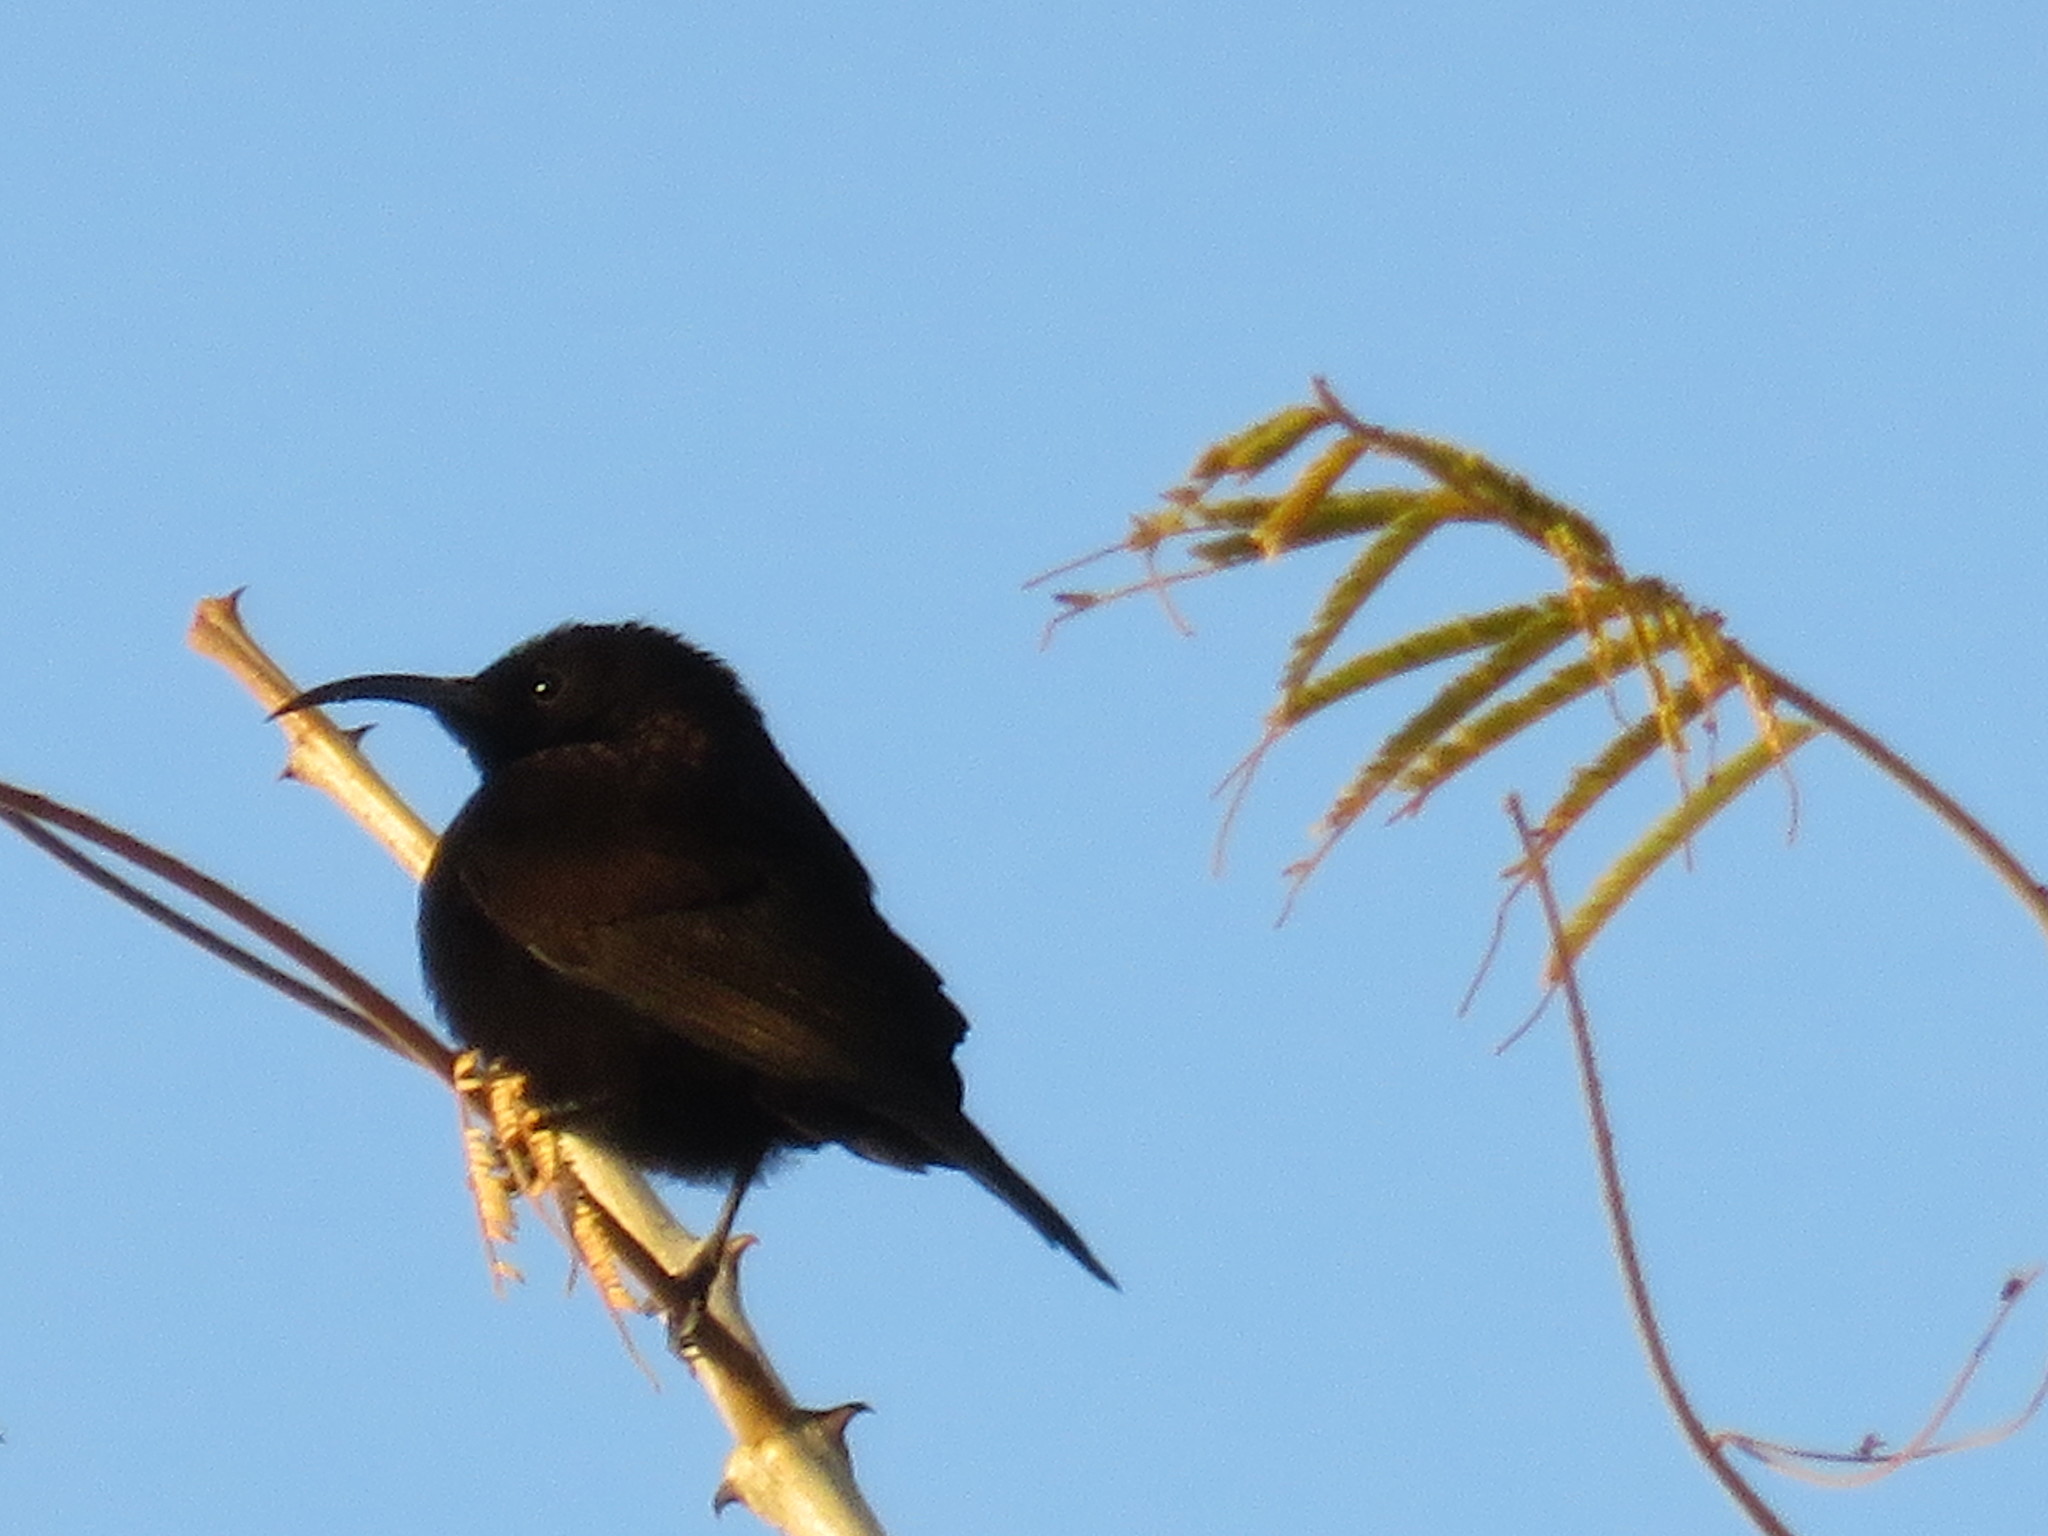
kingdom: Animalia
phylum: Chordata
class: Aves
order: Passeriformes
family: Nectariniidae
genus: Chalcomitra
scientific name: Chalcomitra amethystina
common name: Amethyst sunbird
